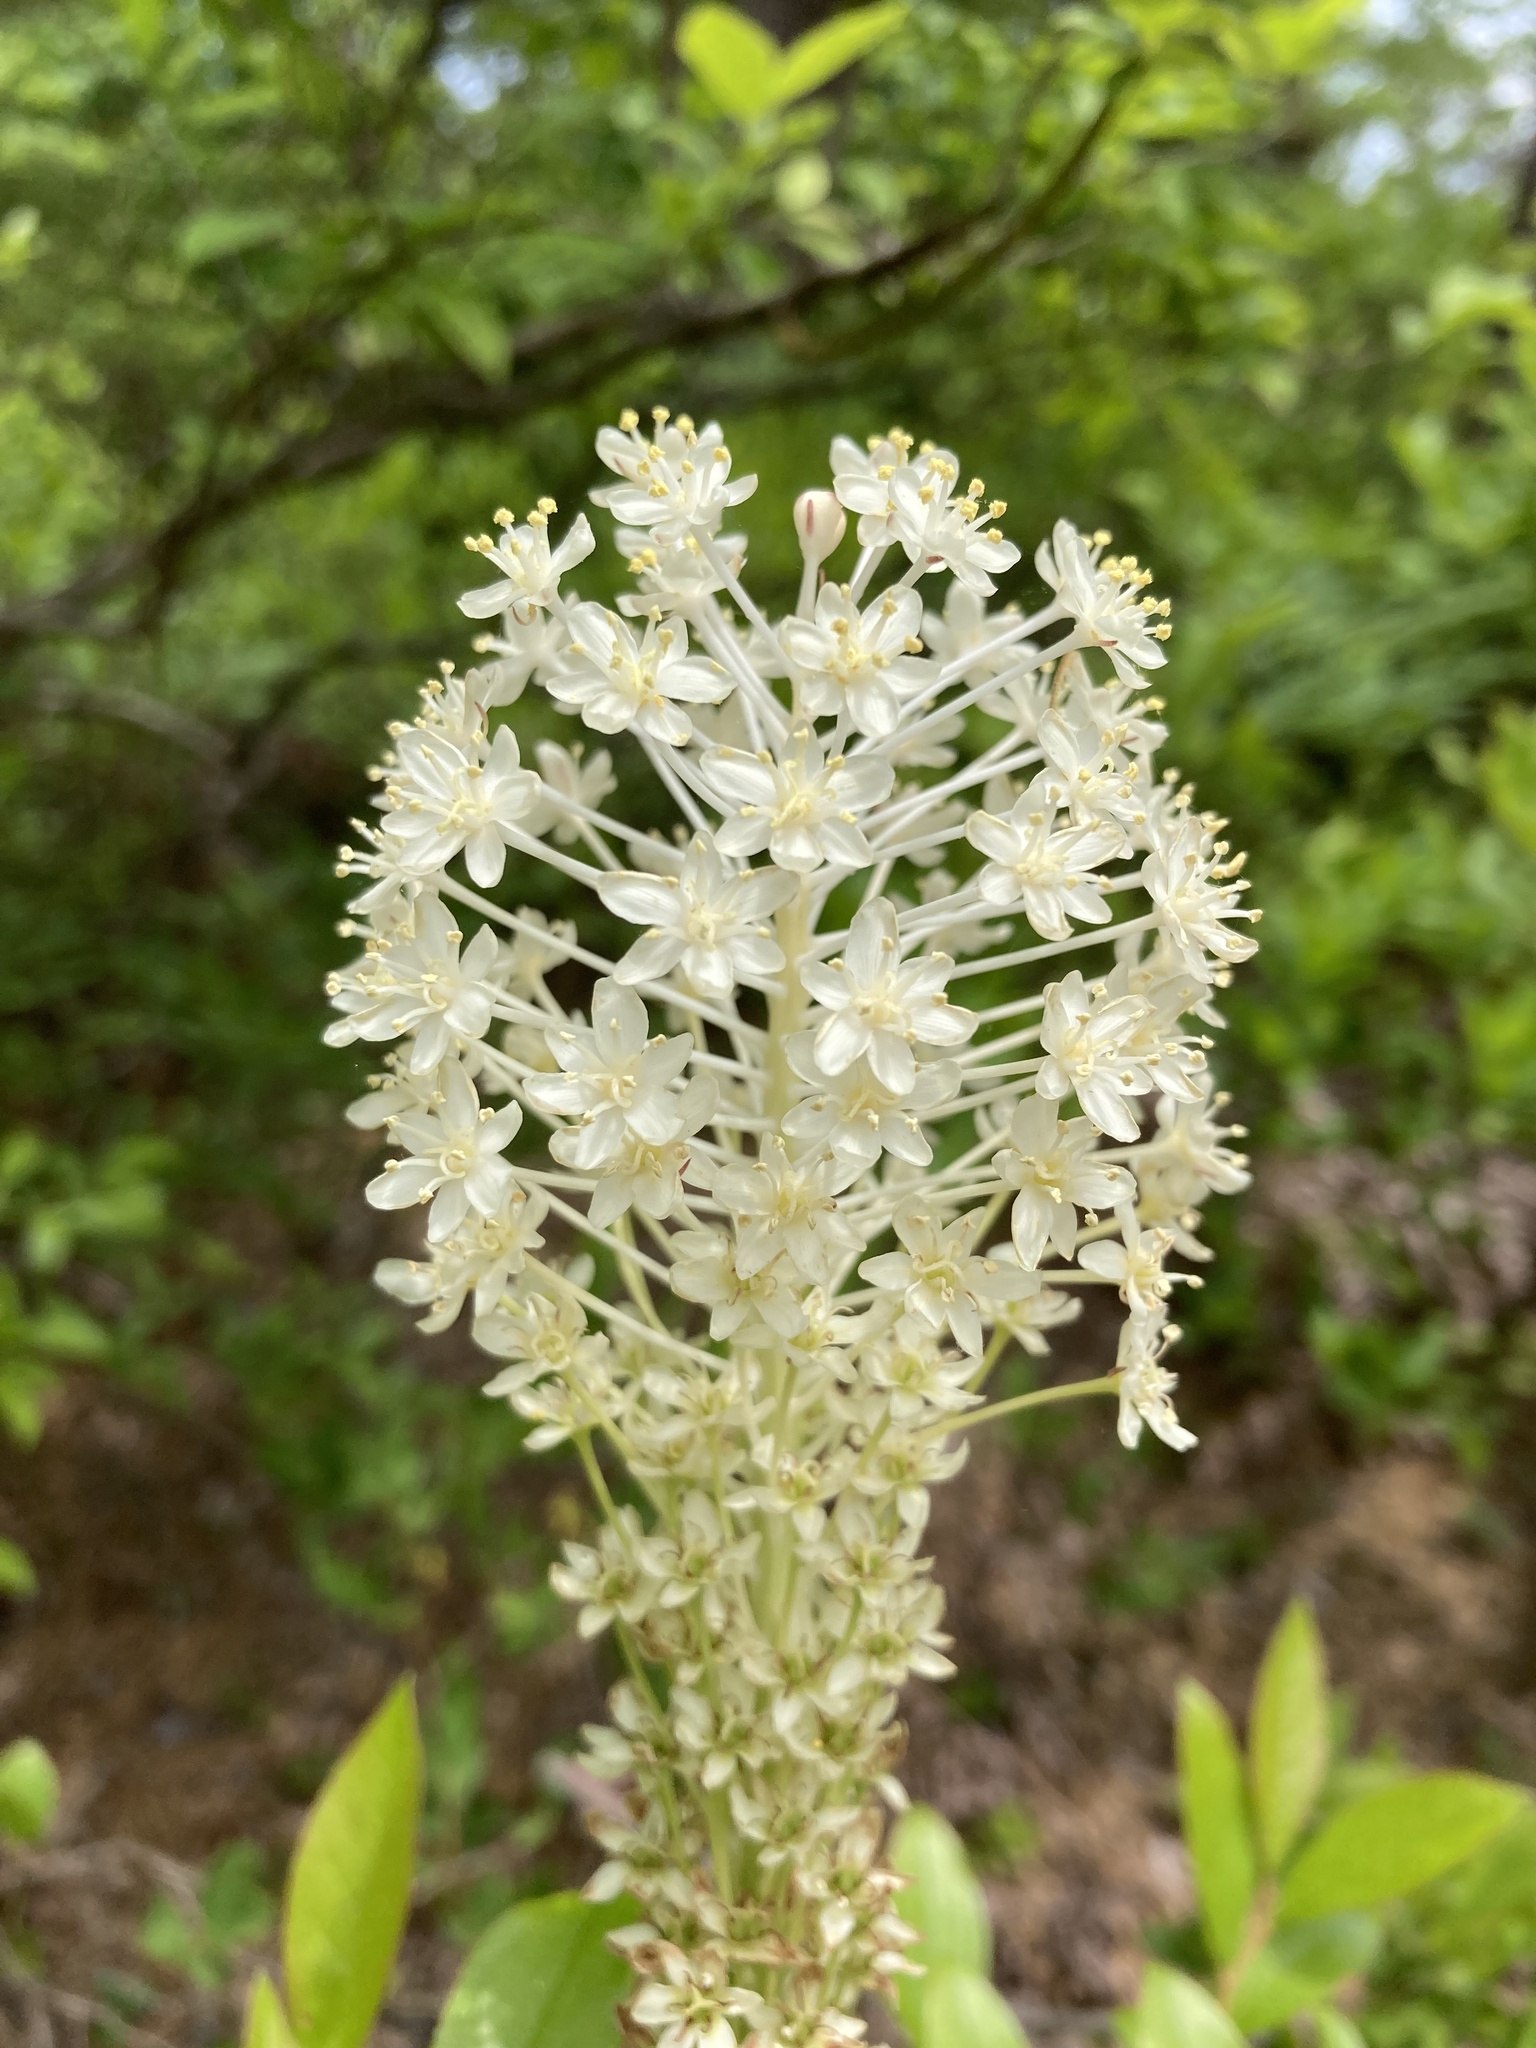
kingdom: Plantae
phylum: Tracheophyta
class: Liliopsida
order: Liliales
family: Melanthiaceae
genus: Xerophyllum
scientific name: Xerophyllum asphodeloides
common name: Mountain-asphodel
